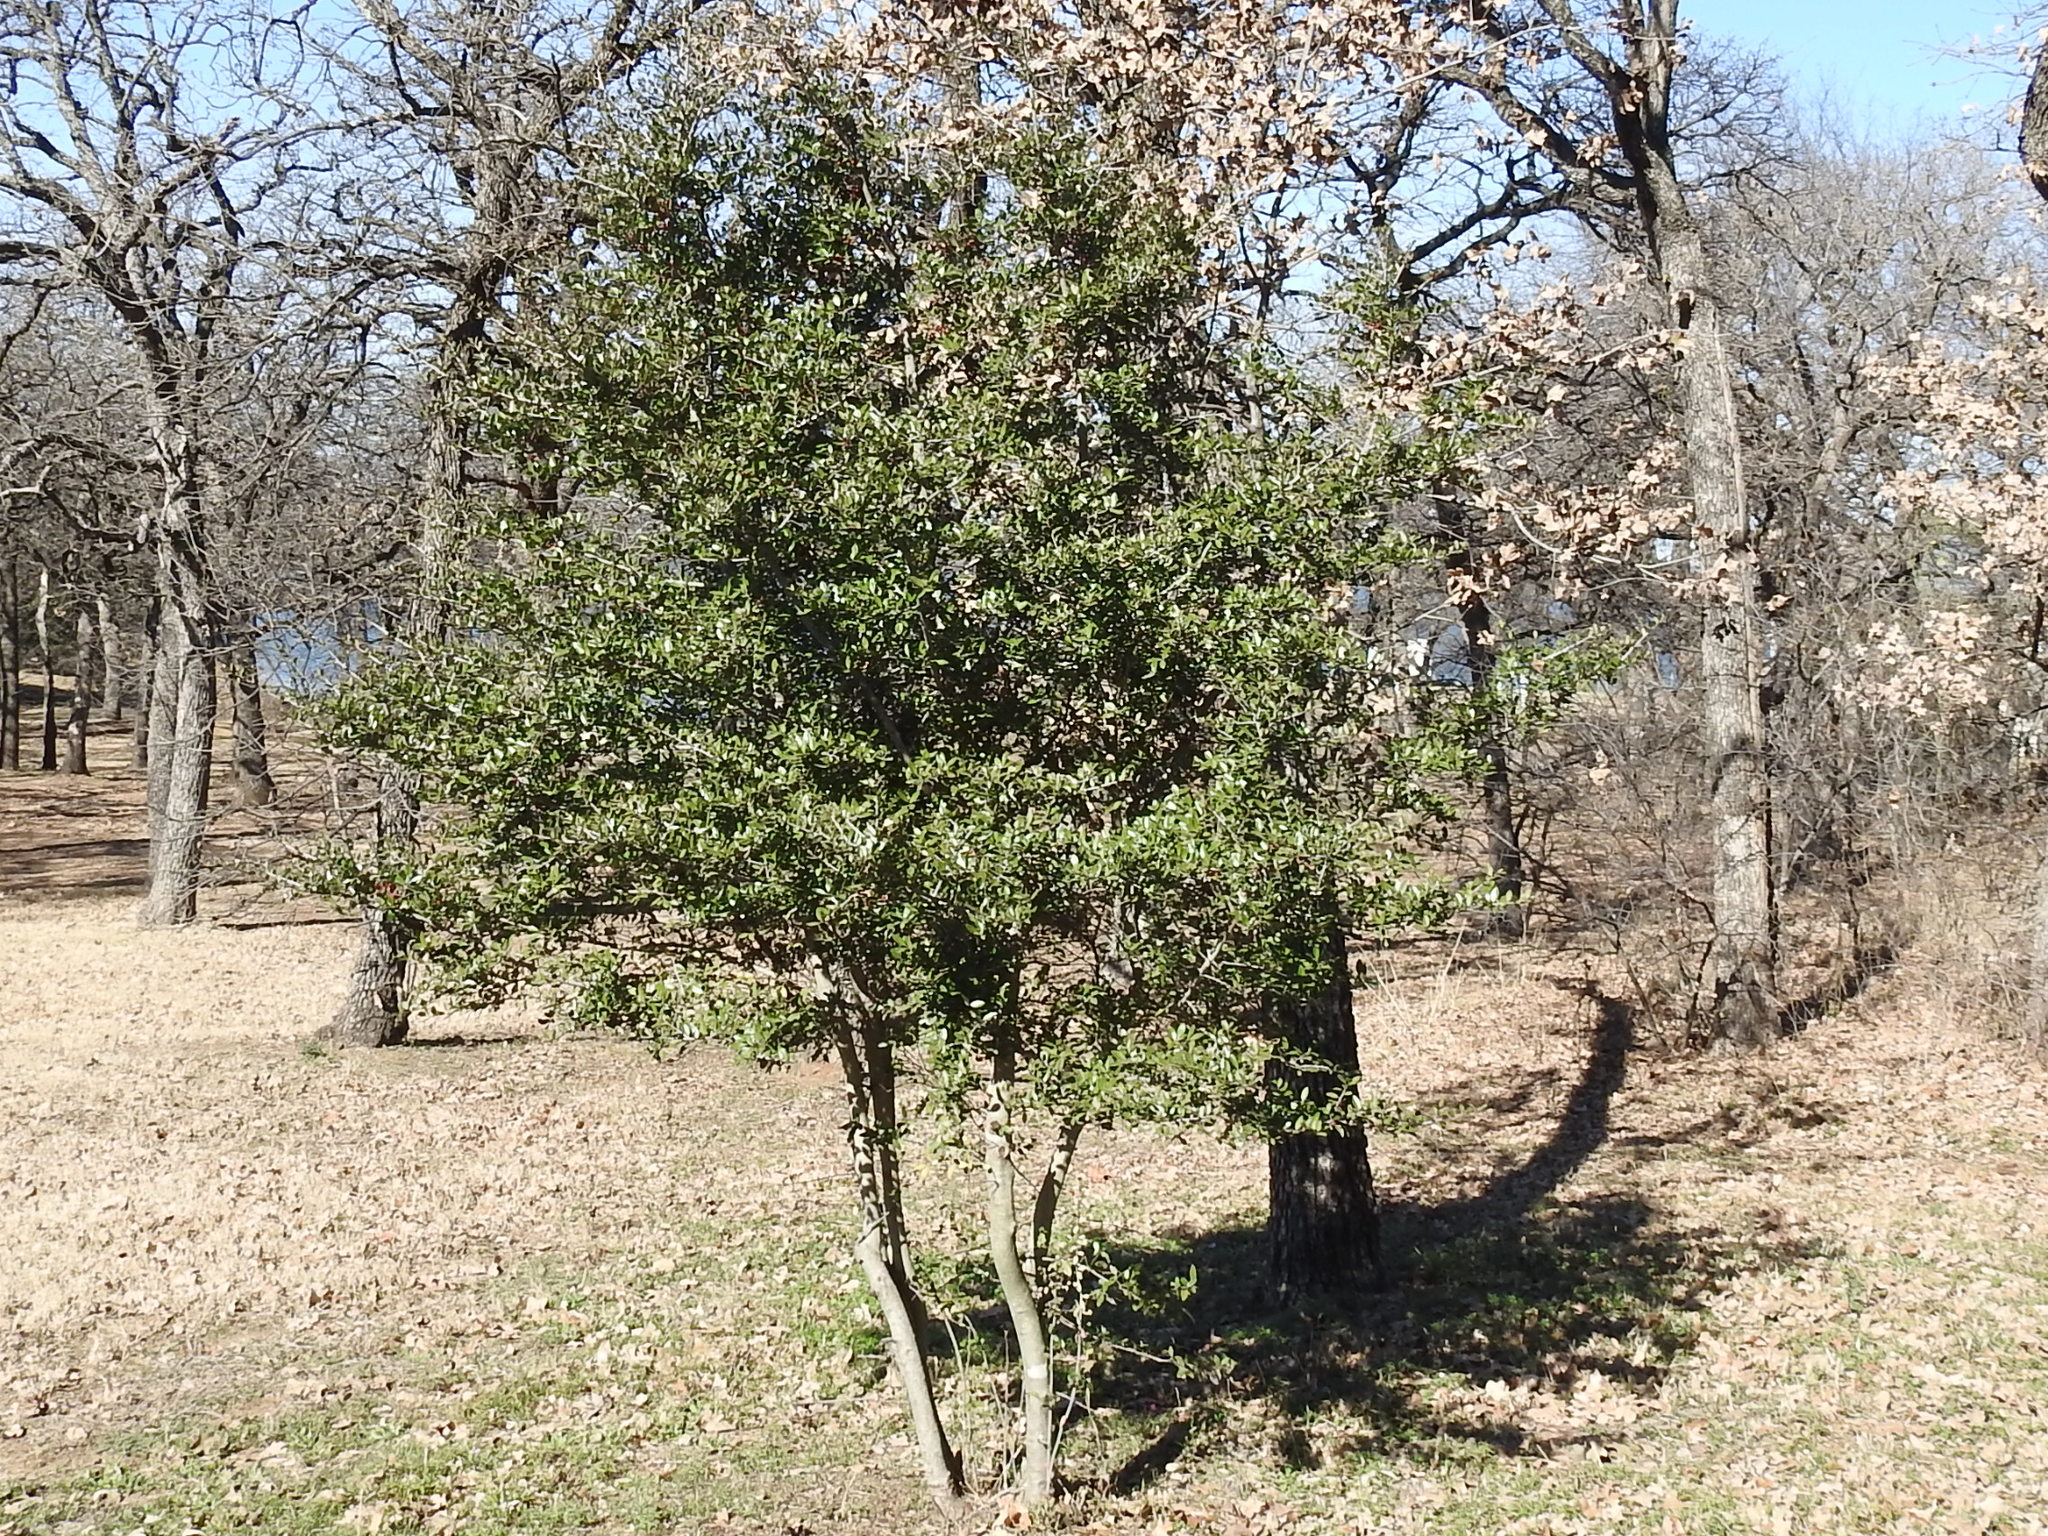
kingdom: Plantae
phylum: Tracheophyta
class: Magnoliopsida
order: Aquifoliales
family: Aquifoliaceae
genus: Ilex
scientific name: Ilex vomitoria
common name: Yaupon holly
